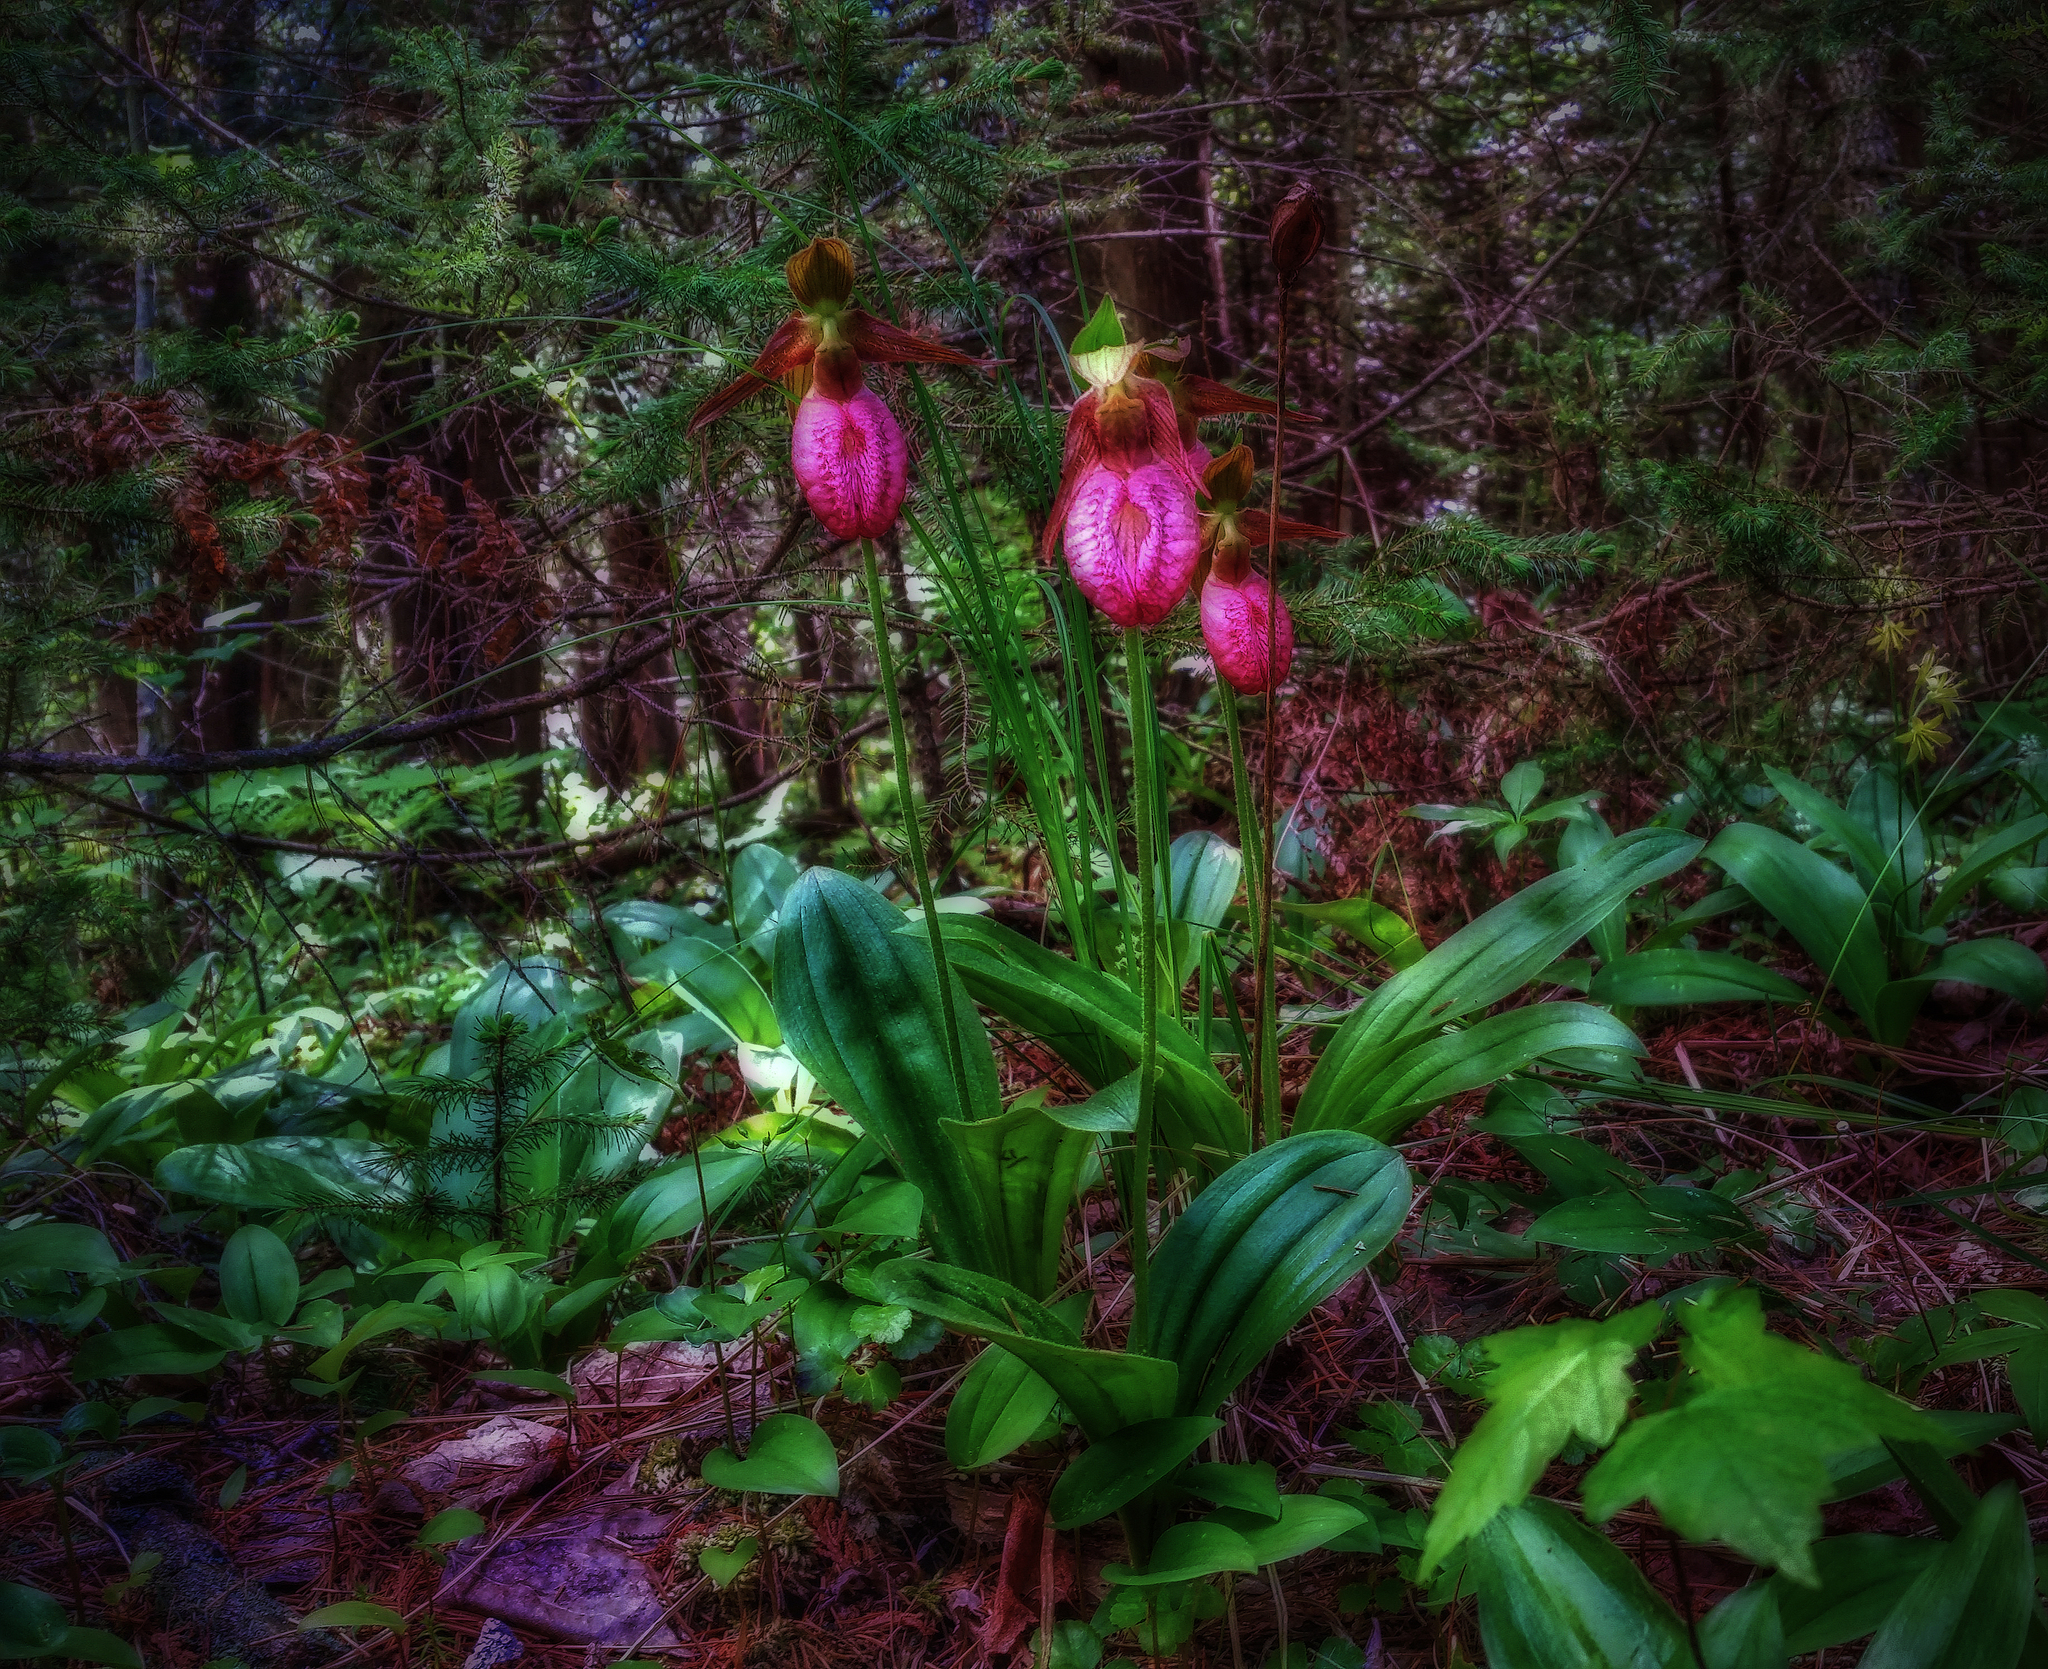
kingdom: Plantae
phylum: Tracheophyta
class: Liliopsida
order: Asparagales
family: Orchidaceae
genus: Cypripedium
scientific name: Cypripedium acaule
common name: Pink lady's-slipper
